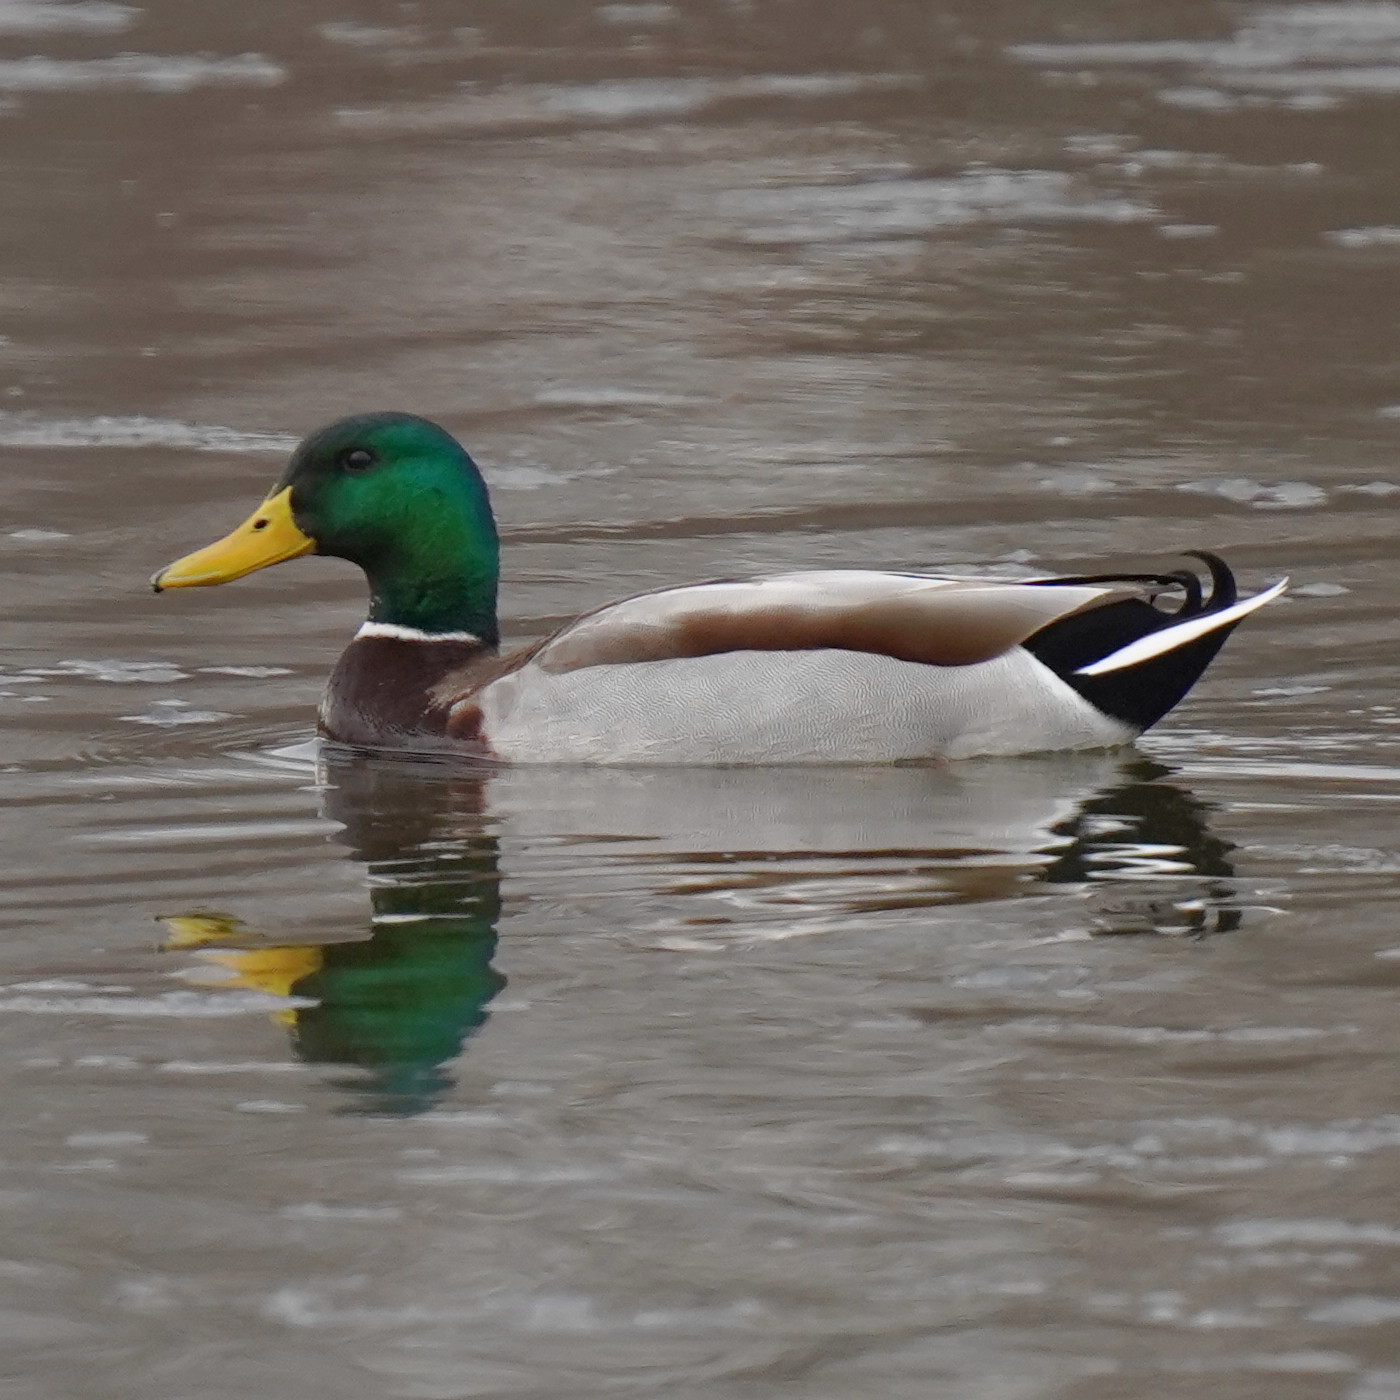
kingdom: Animalia
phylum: Chordata
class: Aves
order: Anseriformes
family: Anatidae
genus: Anas
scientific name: Anas platyrhynchos
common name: Mallard
